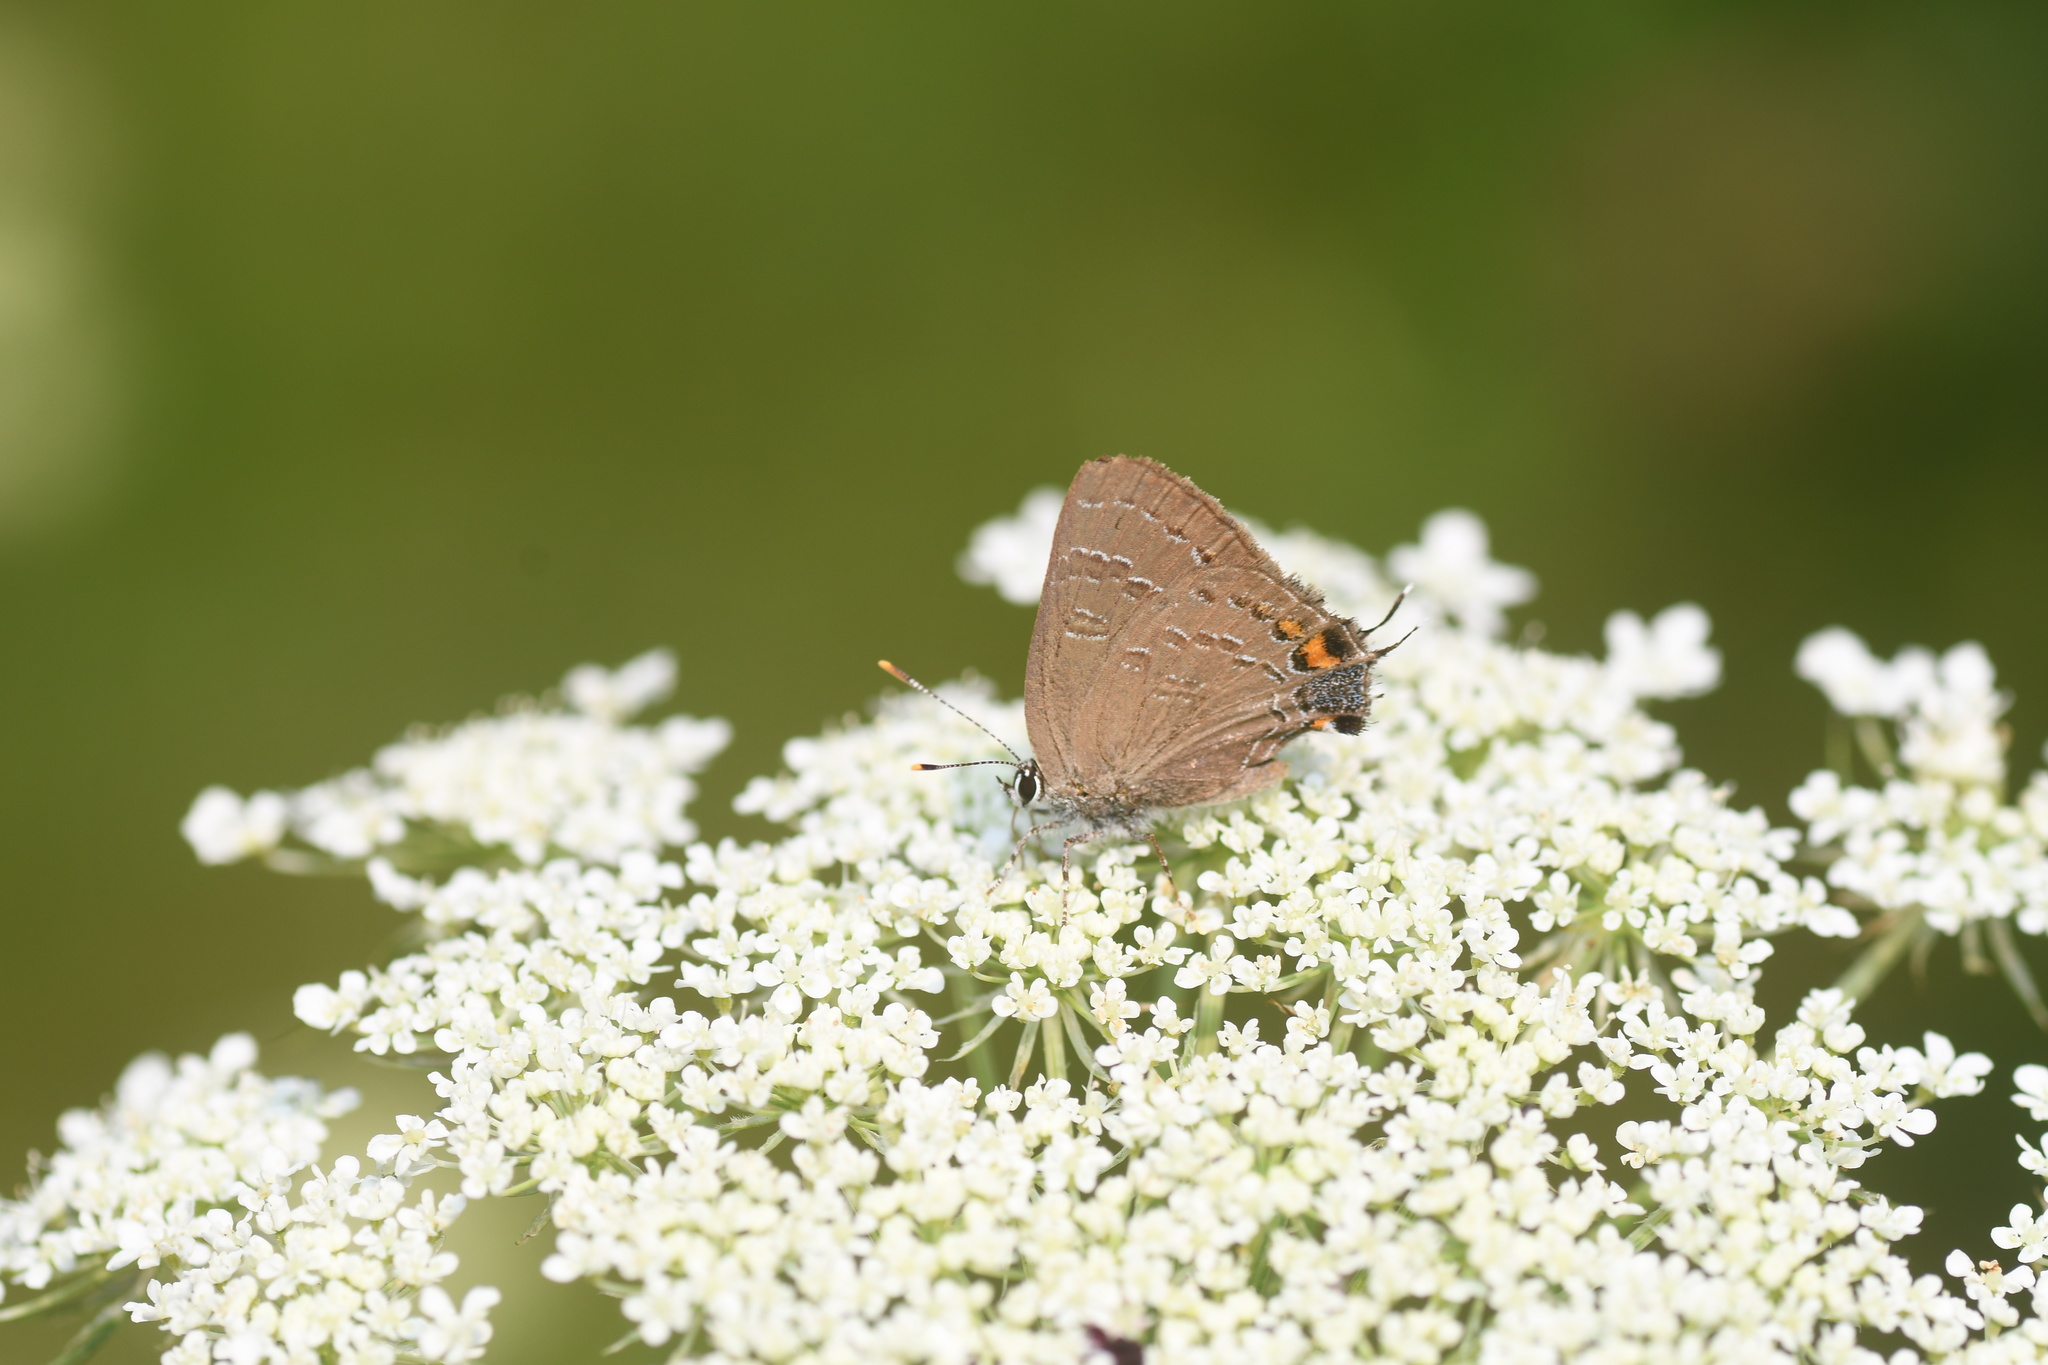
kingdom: Animalia
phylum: Arthropoda
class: Insecta
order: Lepidoptera
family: Lycaenidae
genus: Satyrium
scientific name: Satyrium calanus
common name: Banded hairstreak
